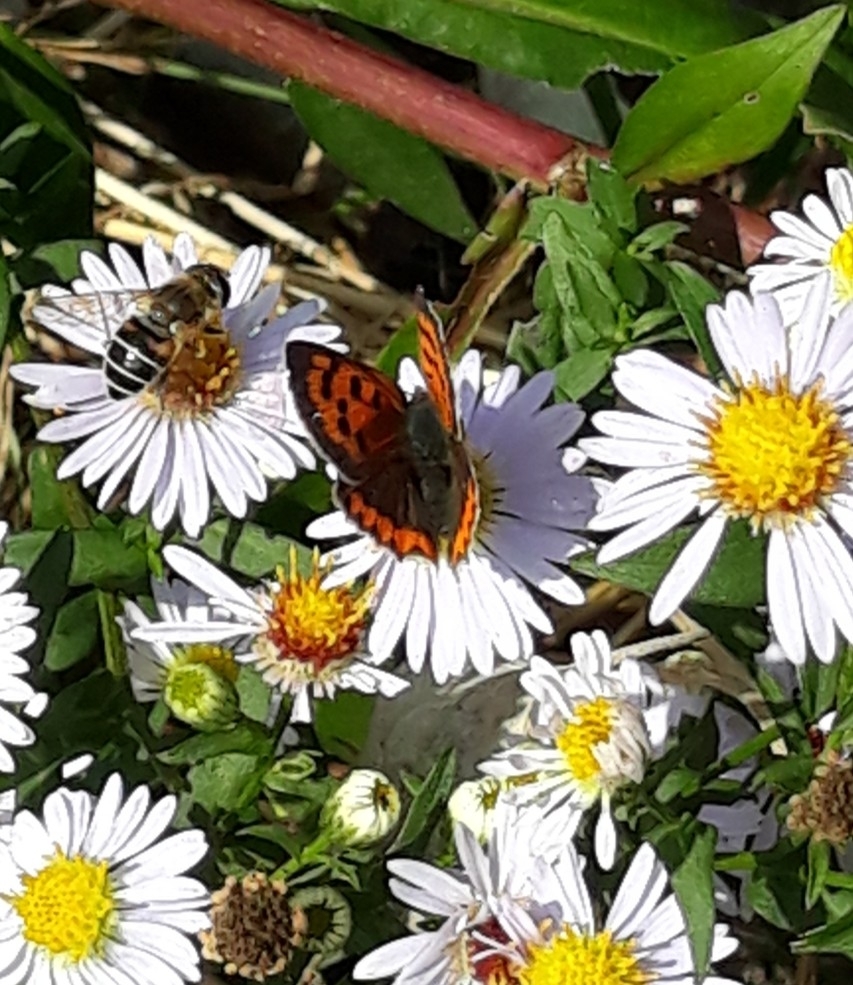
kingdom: Animalia
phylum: Arthropoda
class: Insecta
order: Lepidoptera
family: Lycaenidae
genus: Lycaena
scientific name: Lycaena phlaeas
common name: Small copper
